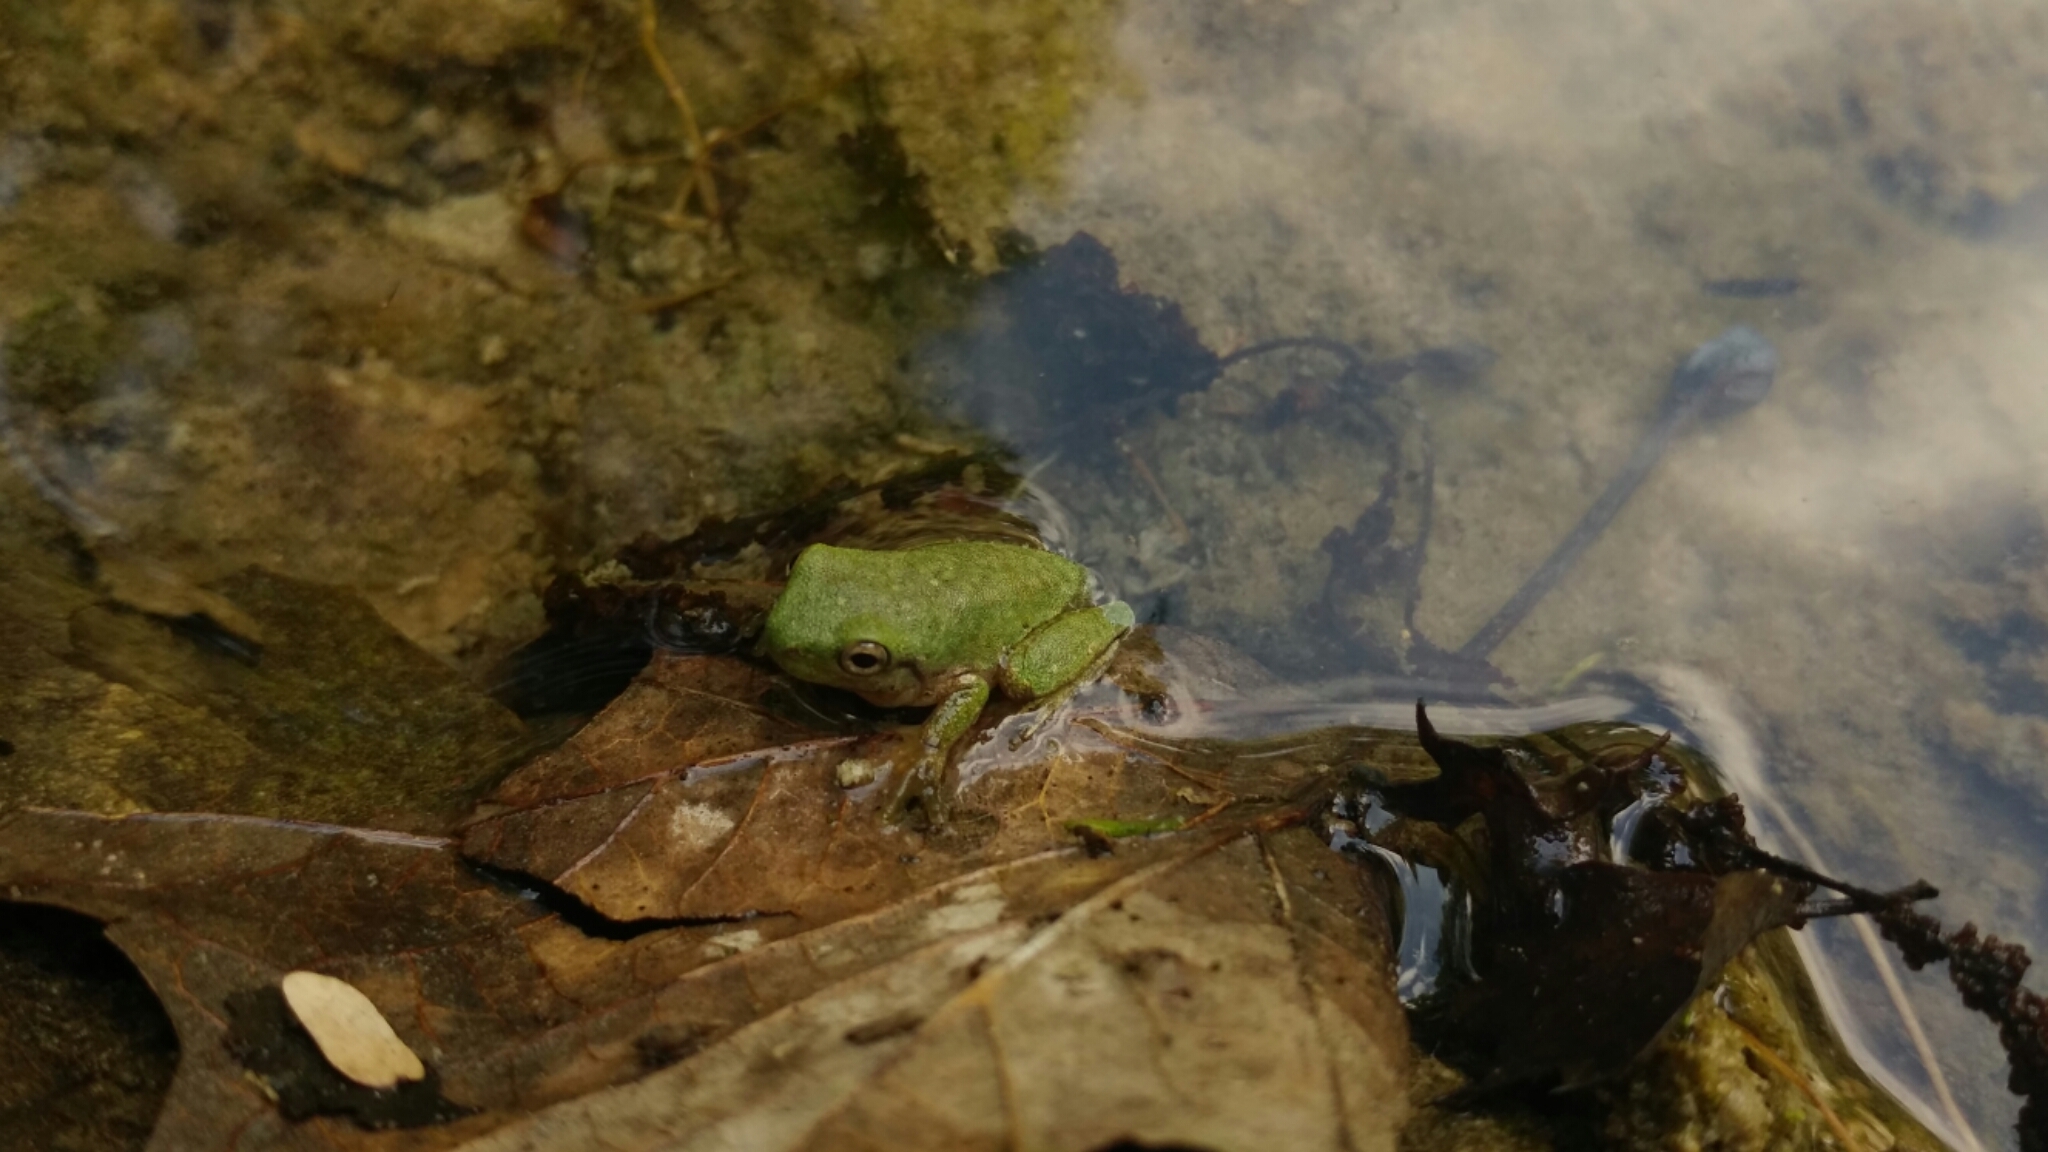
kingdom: Animalia
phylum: Chordata
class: Amphibia
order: Anura
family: Hylidae
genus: Rheohyla
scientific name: Rheohyla miotympanum
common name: Small-eard hyla
